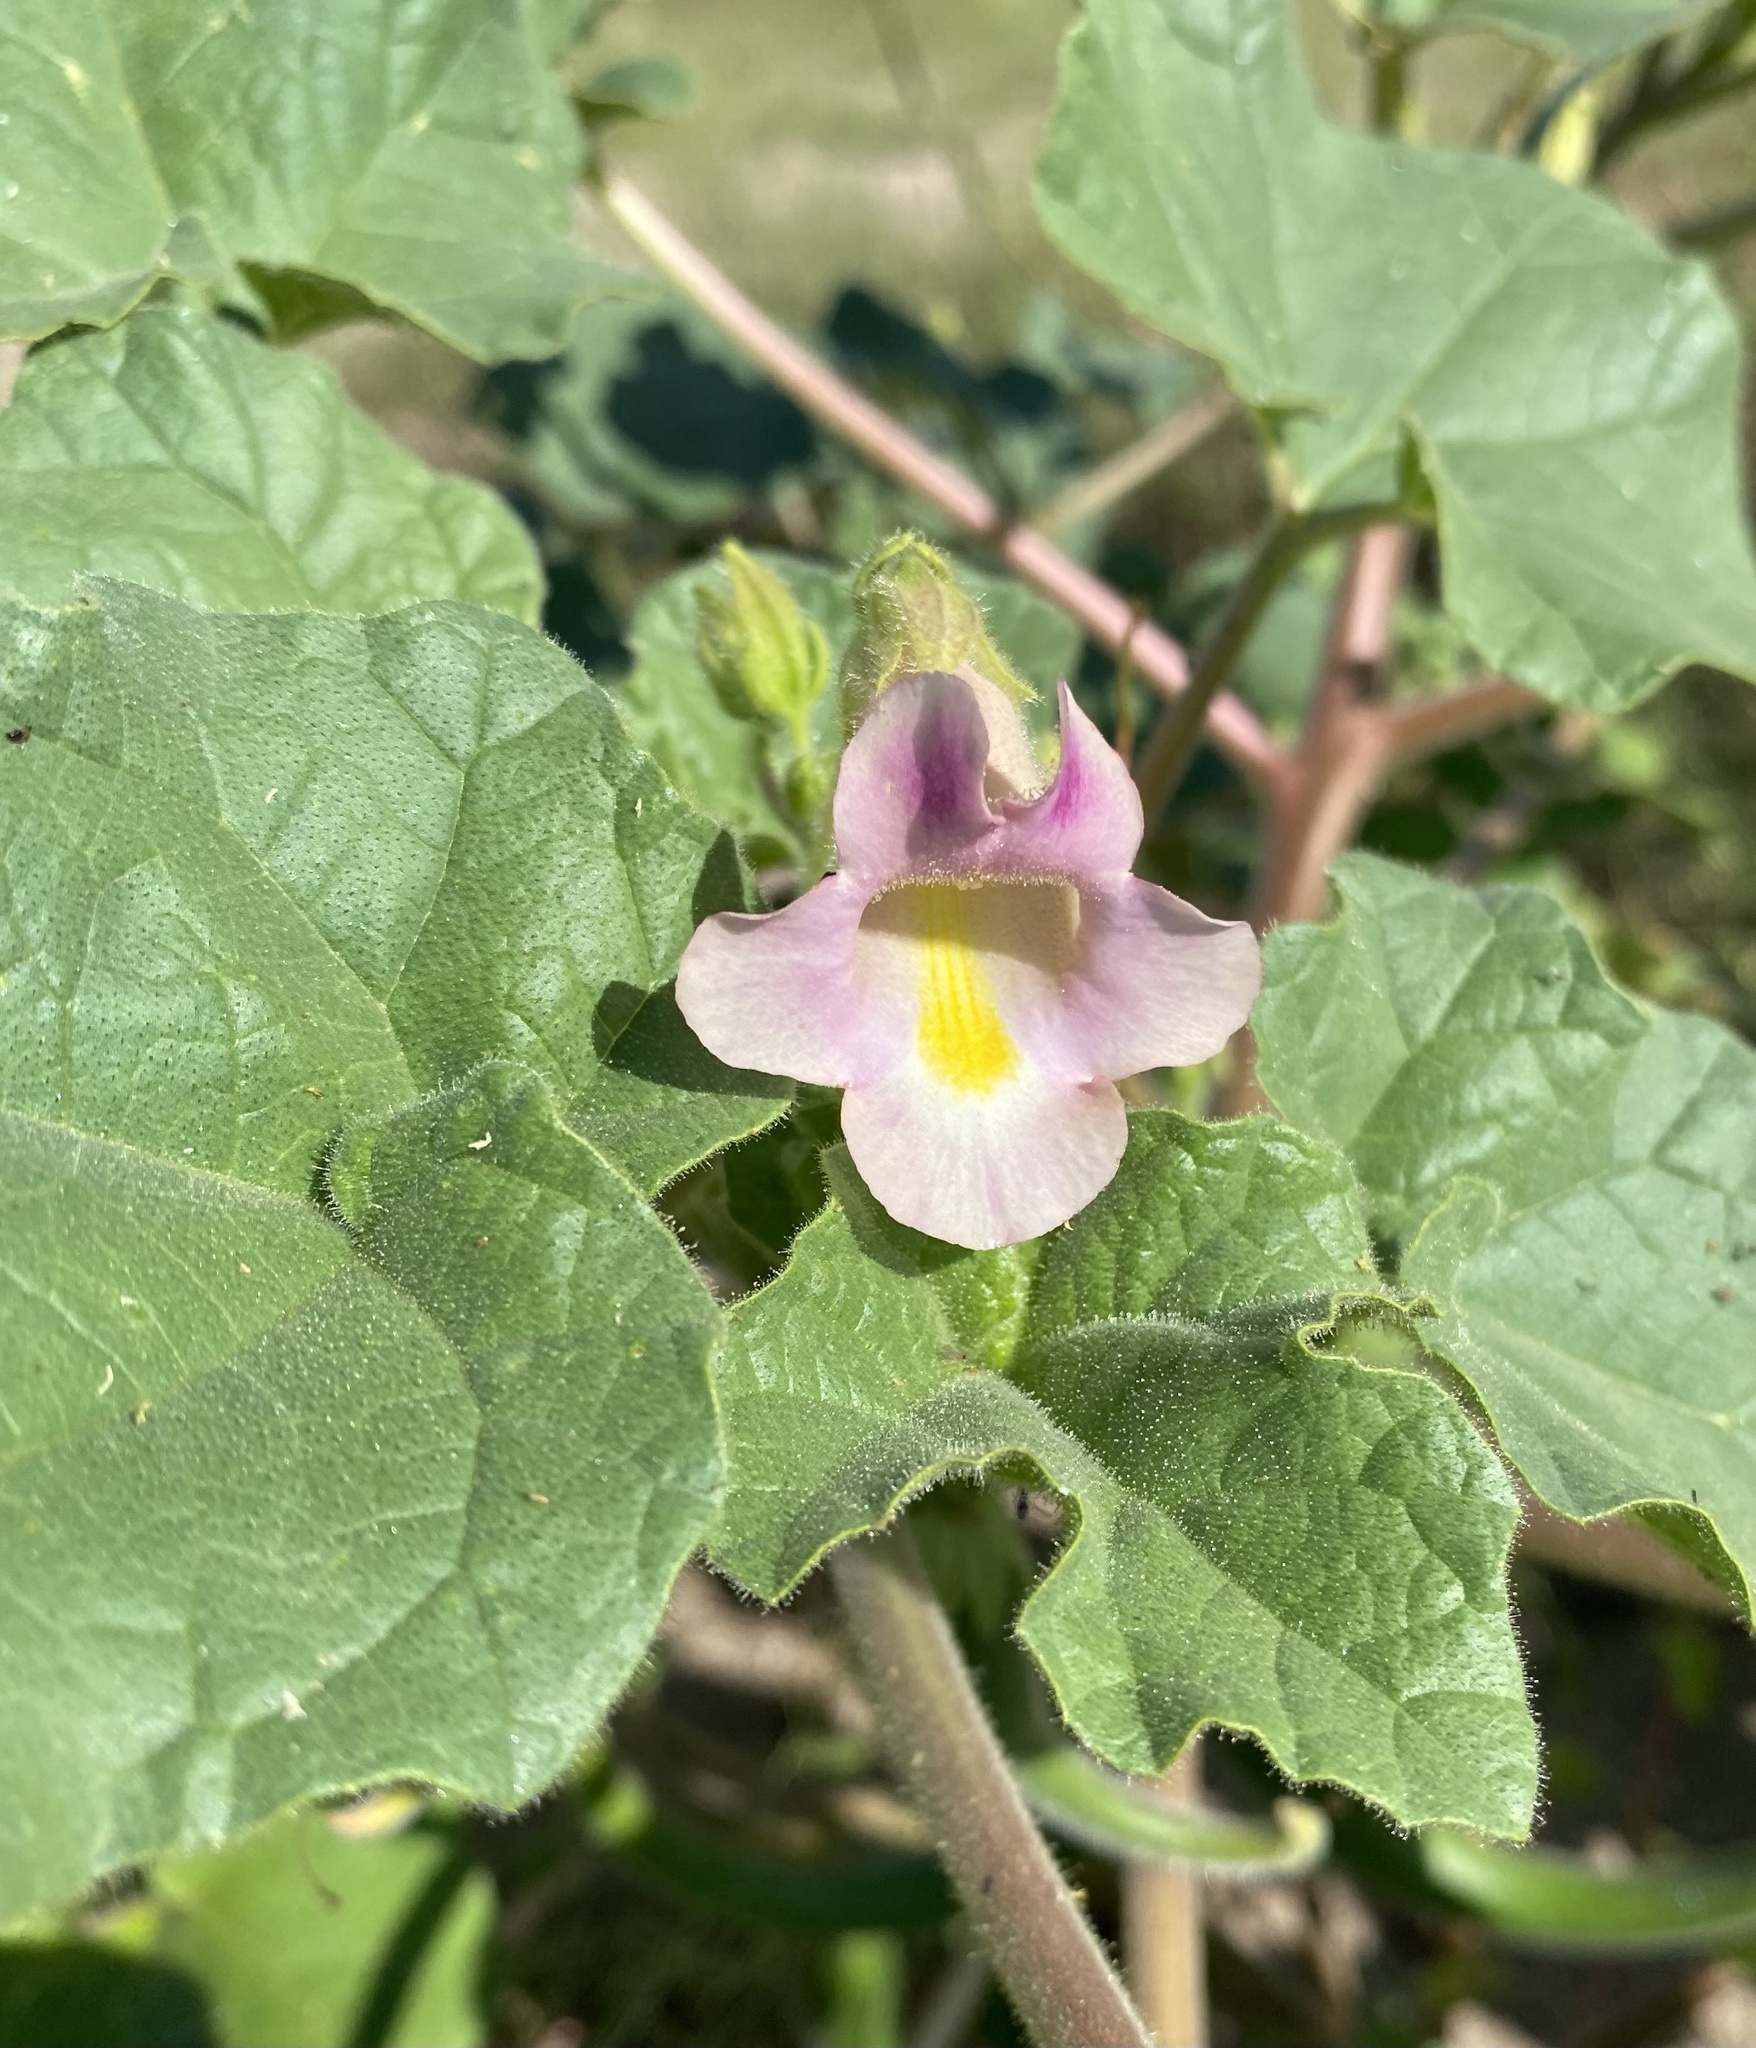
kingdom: Plantae
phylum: Tracheophyta
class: Magnoliopsida
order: Lamiales
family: Martyniaceae
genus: Proboscidea
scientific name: Proboscidea parviflora
